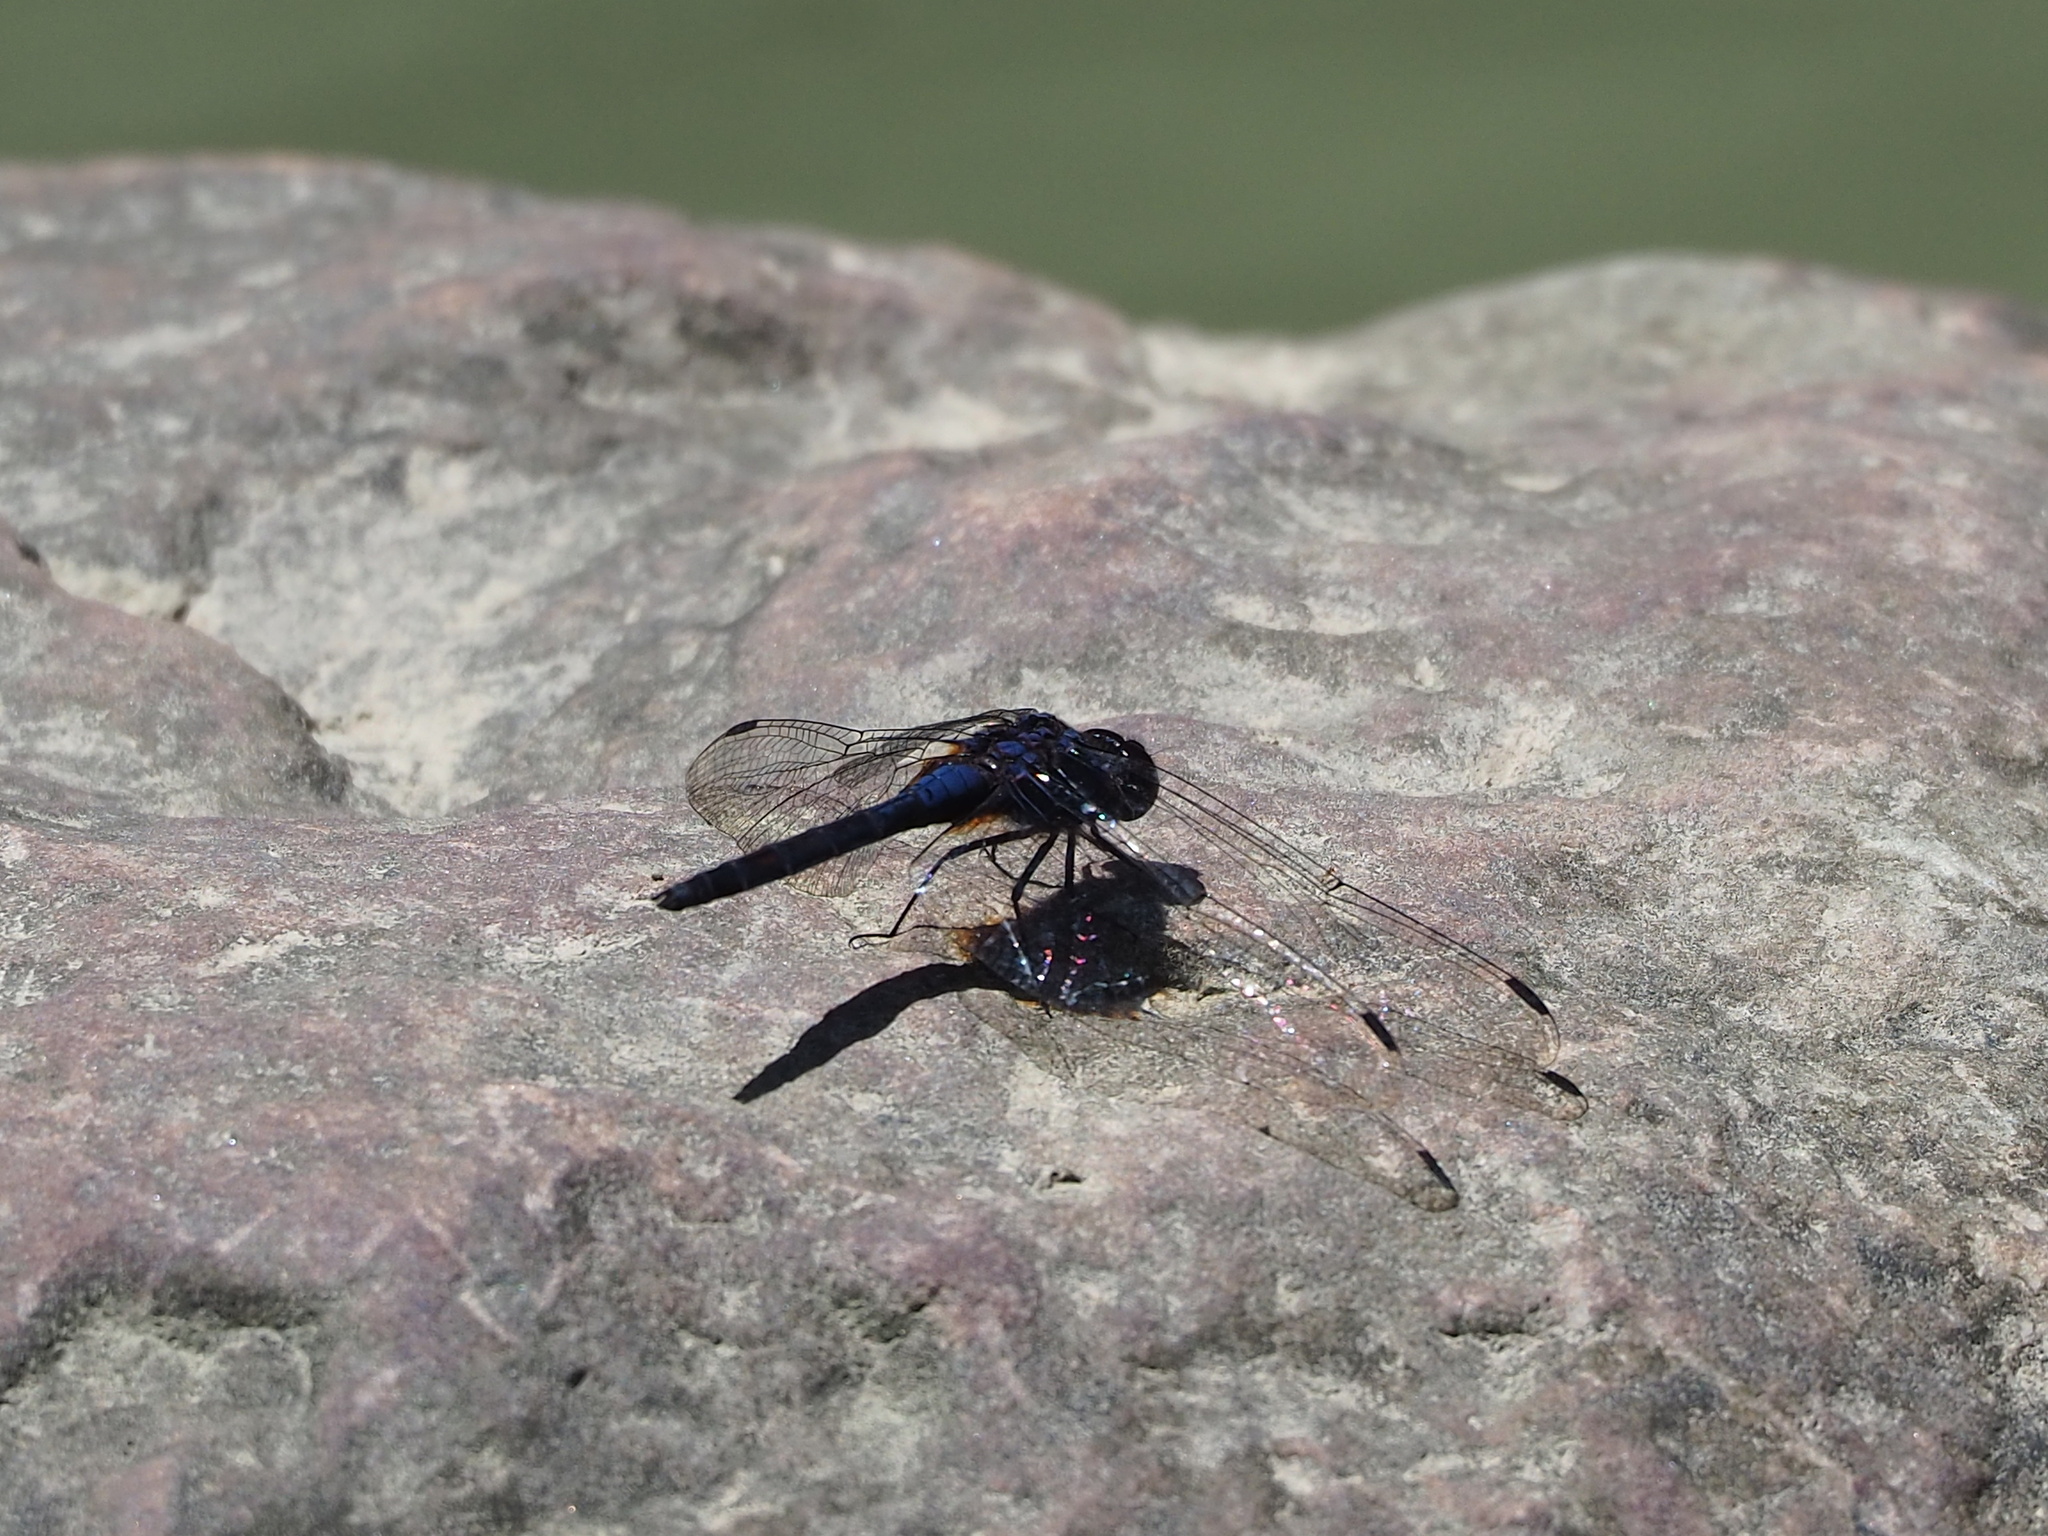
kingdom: Animalia
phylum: Arthropoda
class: Insecta
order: Odonata
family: Libellulidae
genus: Trithemis
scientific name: Trithemis festiva
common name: Indigo dropwing
